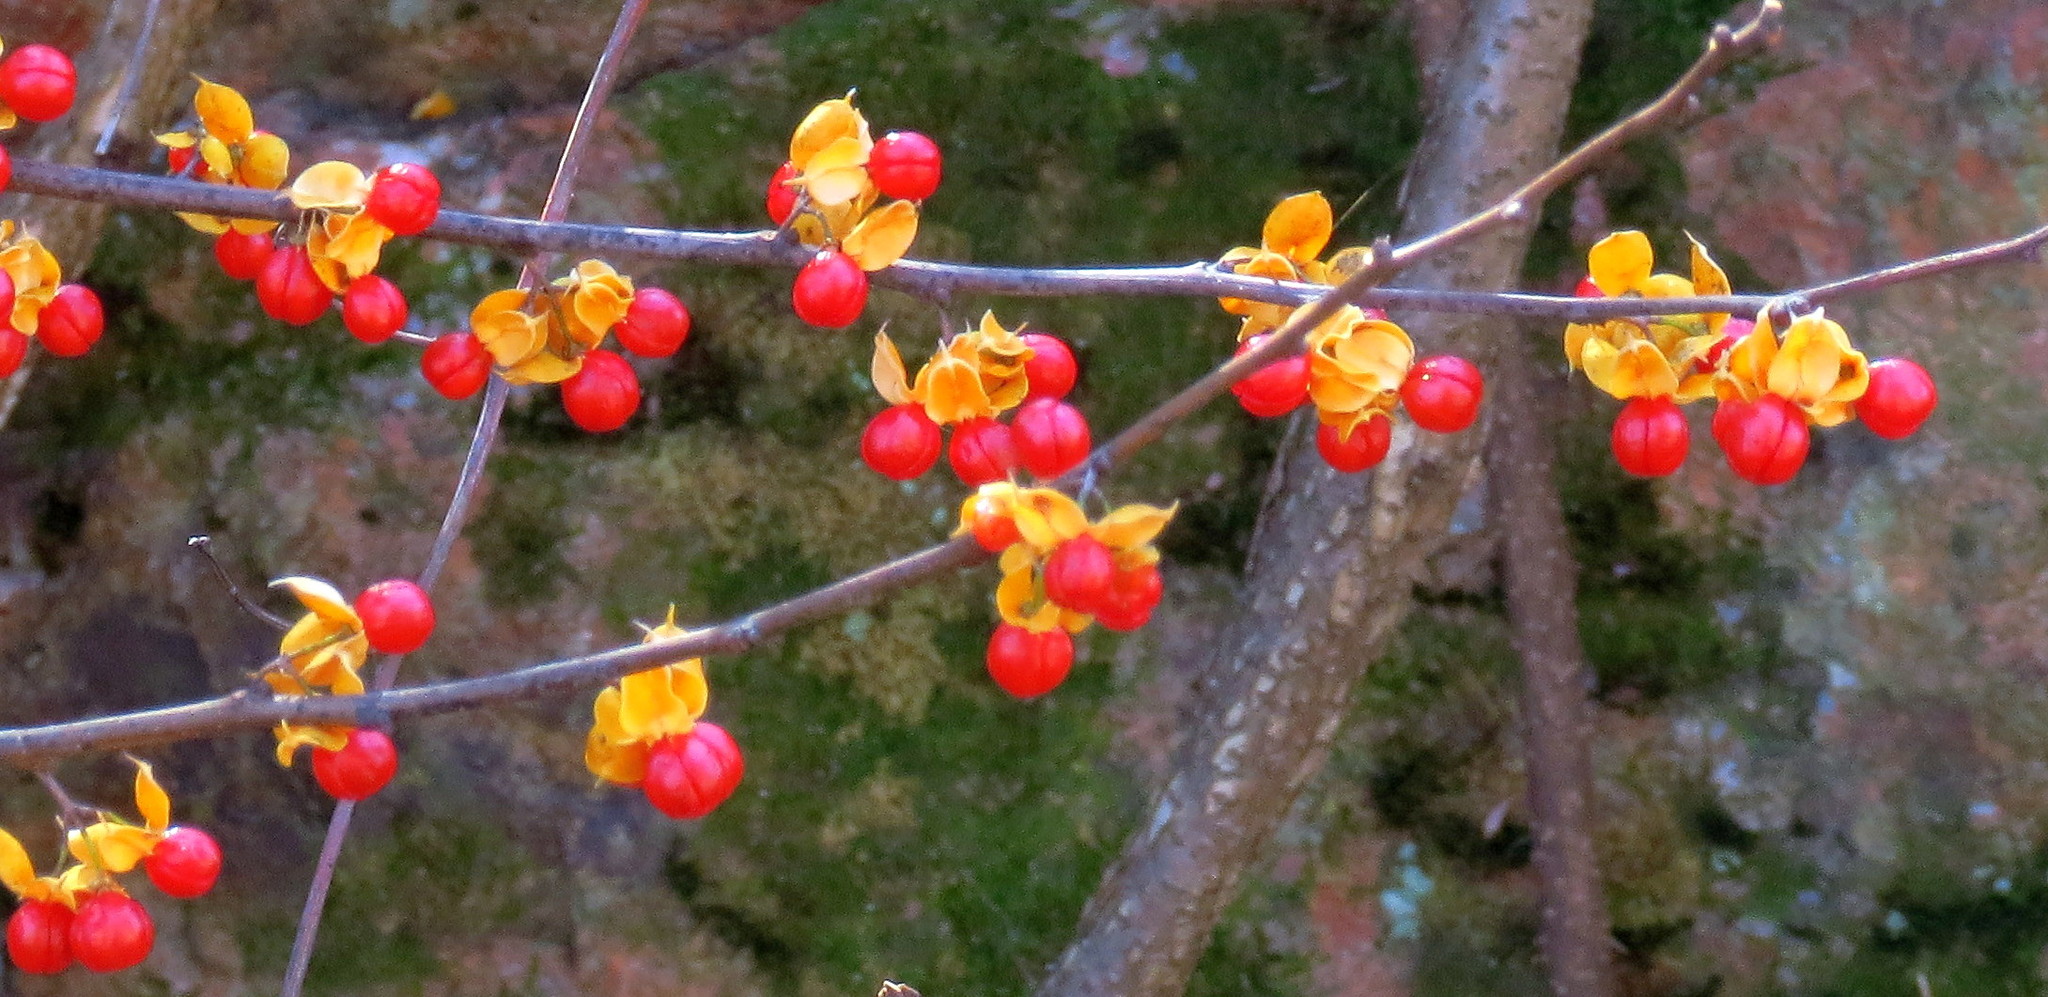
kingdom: Plantae
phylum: Tracheophyta
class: Magnoliopsida
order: Celastrales
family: Celastraceae
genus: Celastrus
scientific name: Celastrus orbiculatus
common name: Oriental bittersweet
